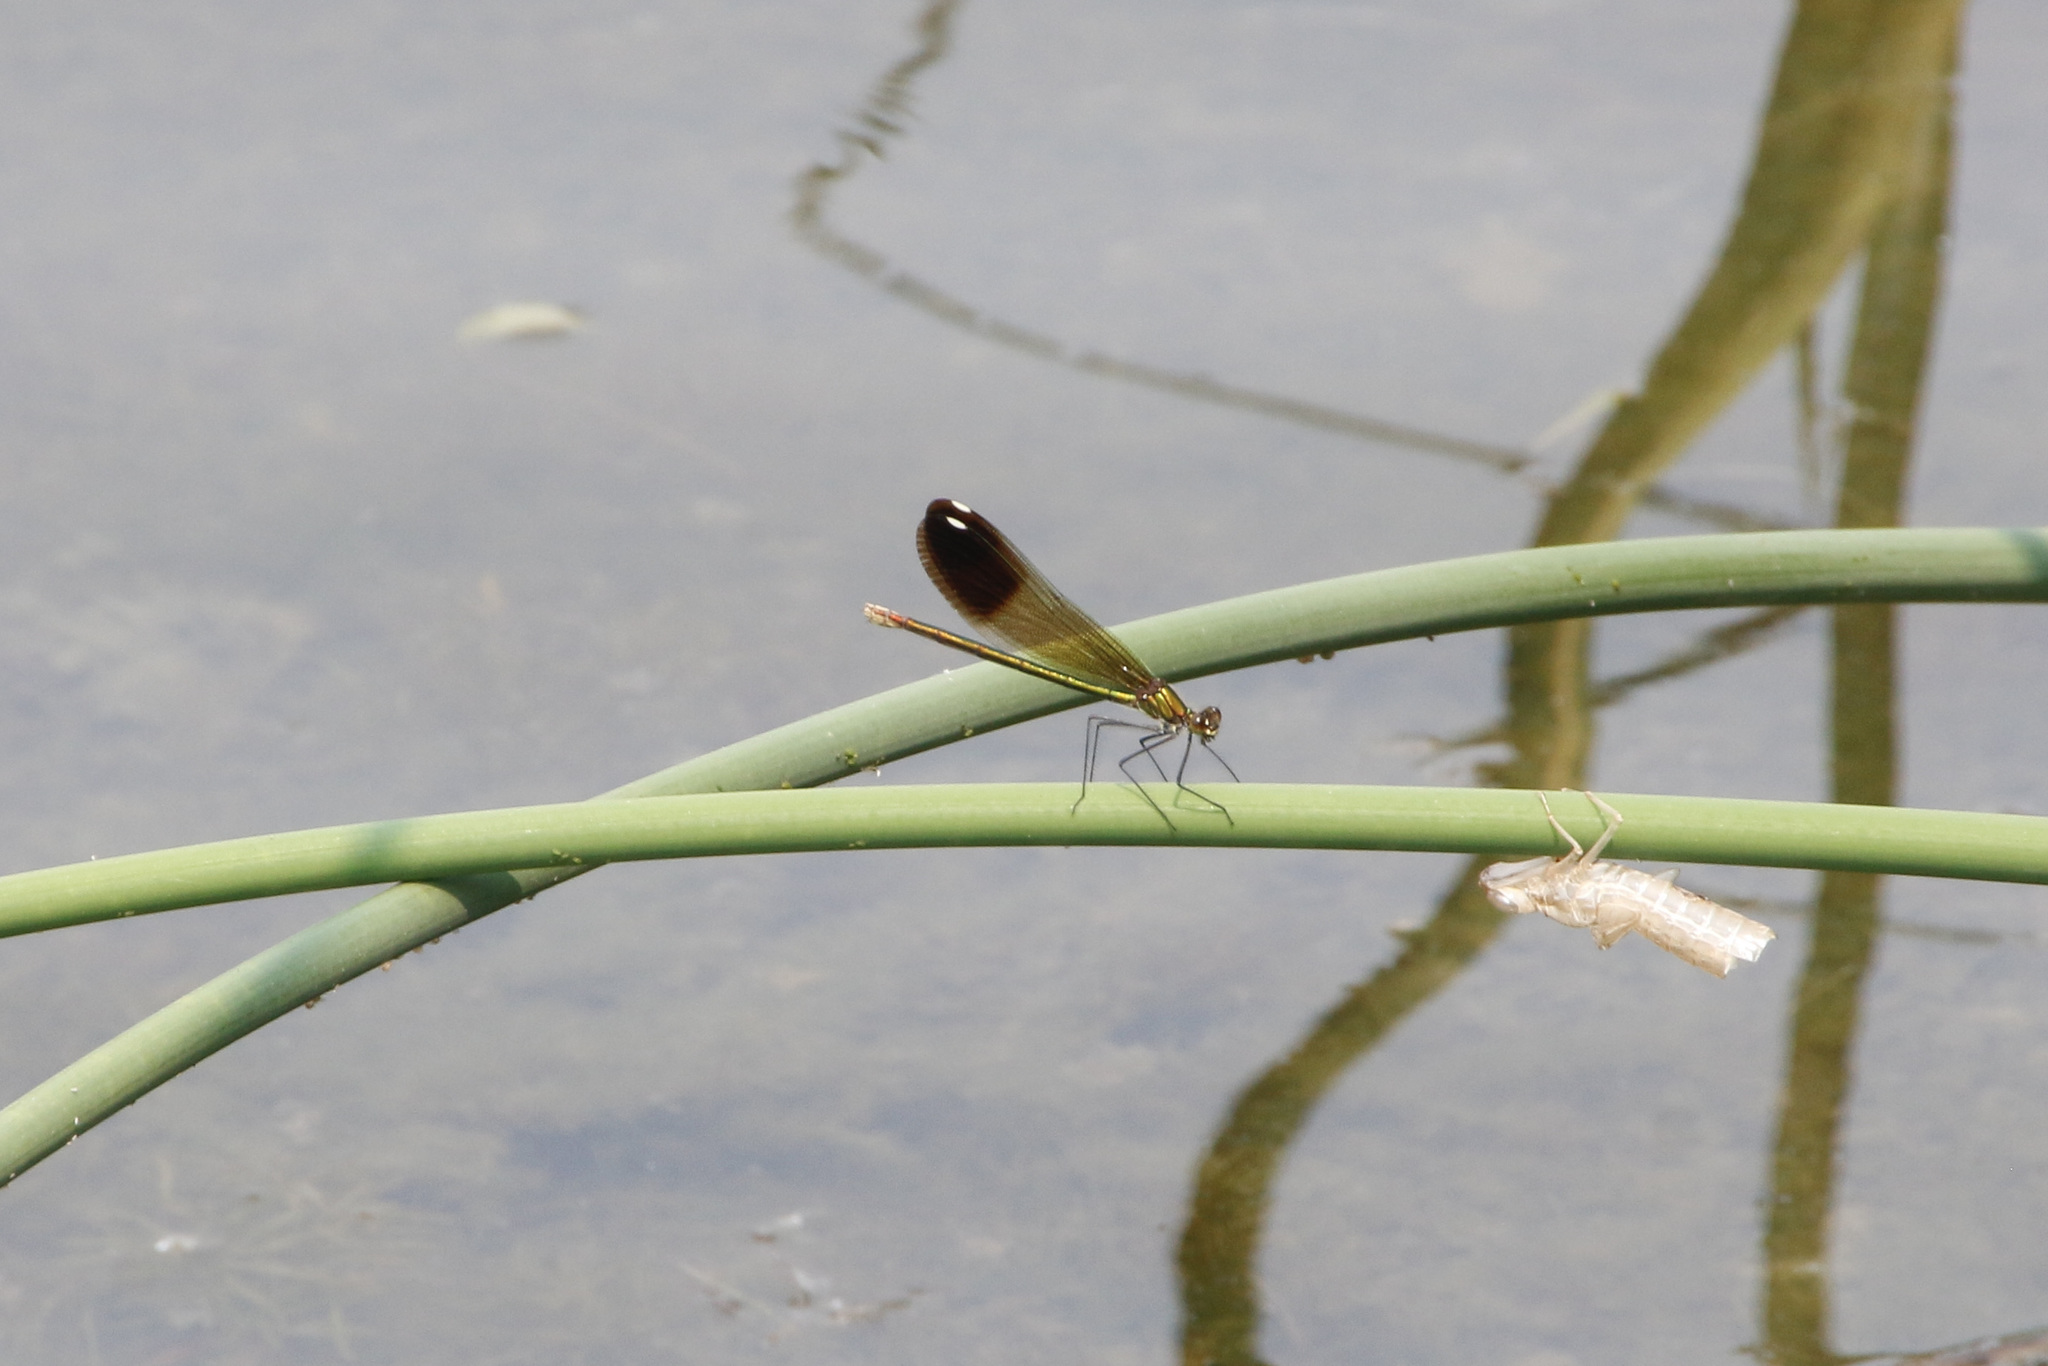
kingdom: Animalia
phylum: Arthropoda
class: Insecta
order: Odonata
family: Calopterygidae
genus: Calopteryx
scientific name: Calopteryx aequabilis
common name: River jewelwing
